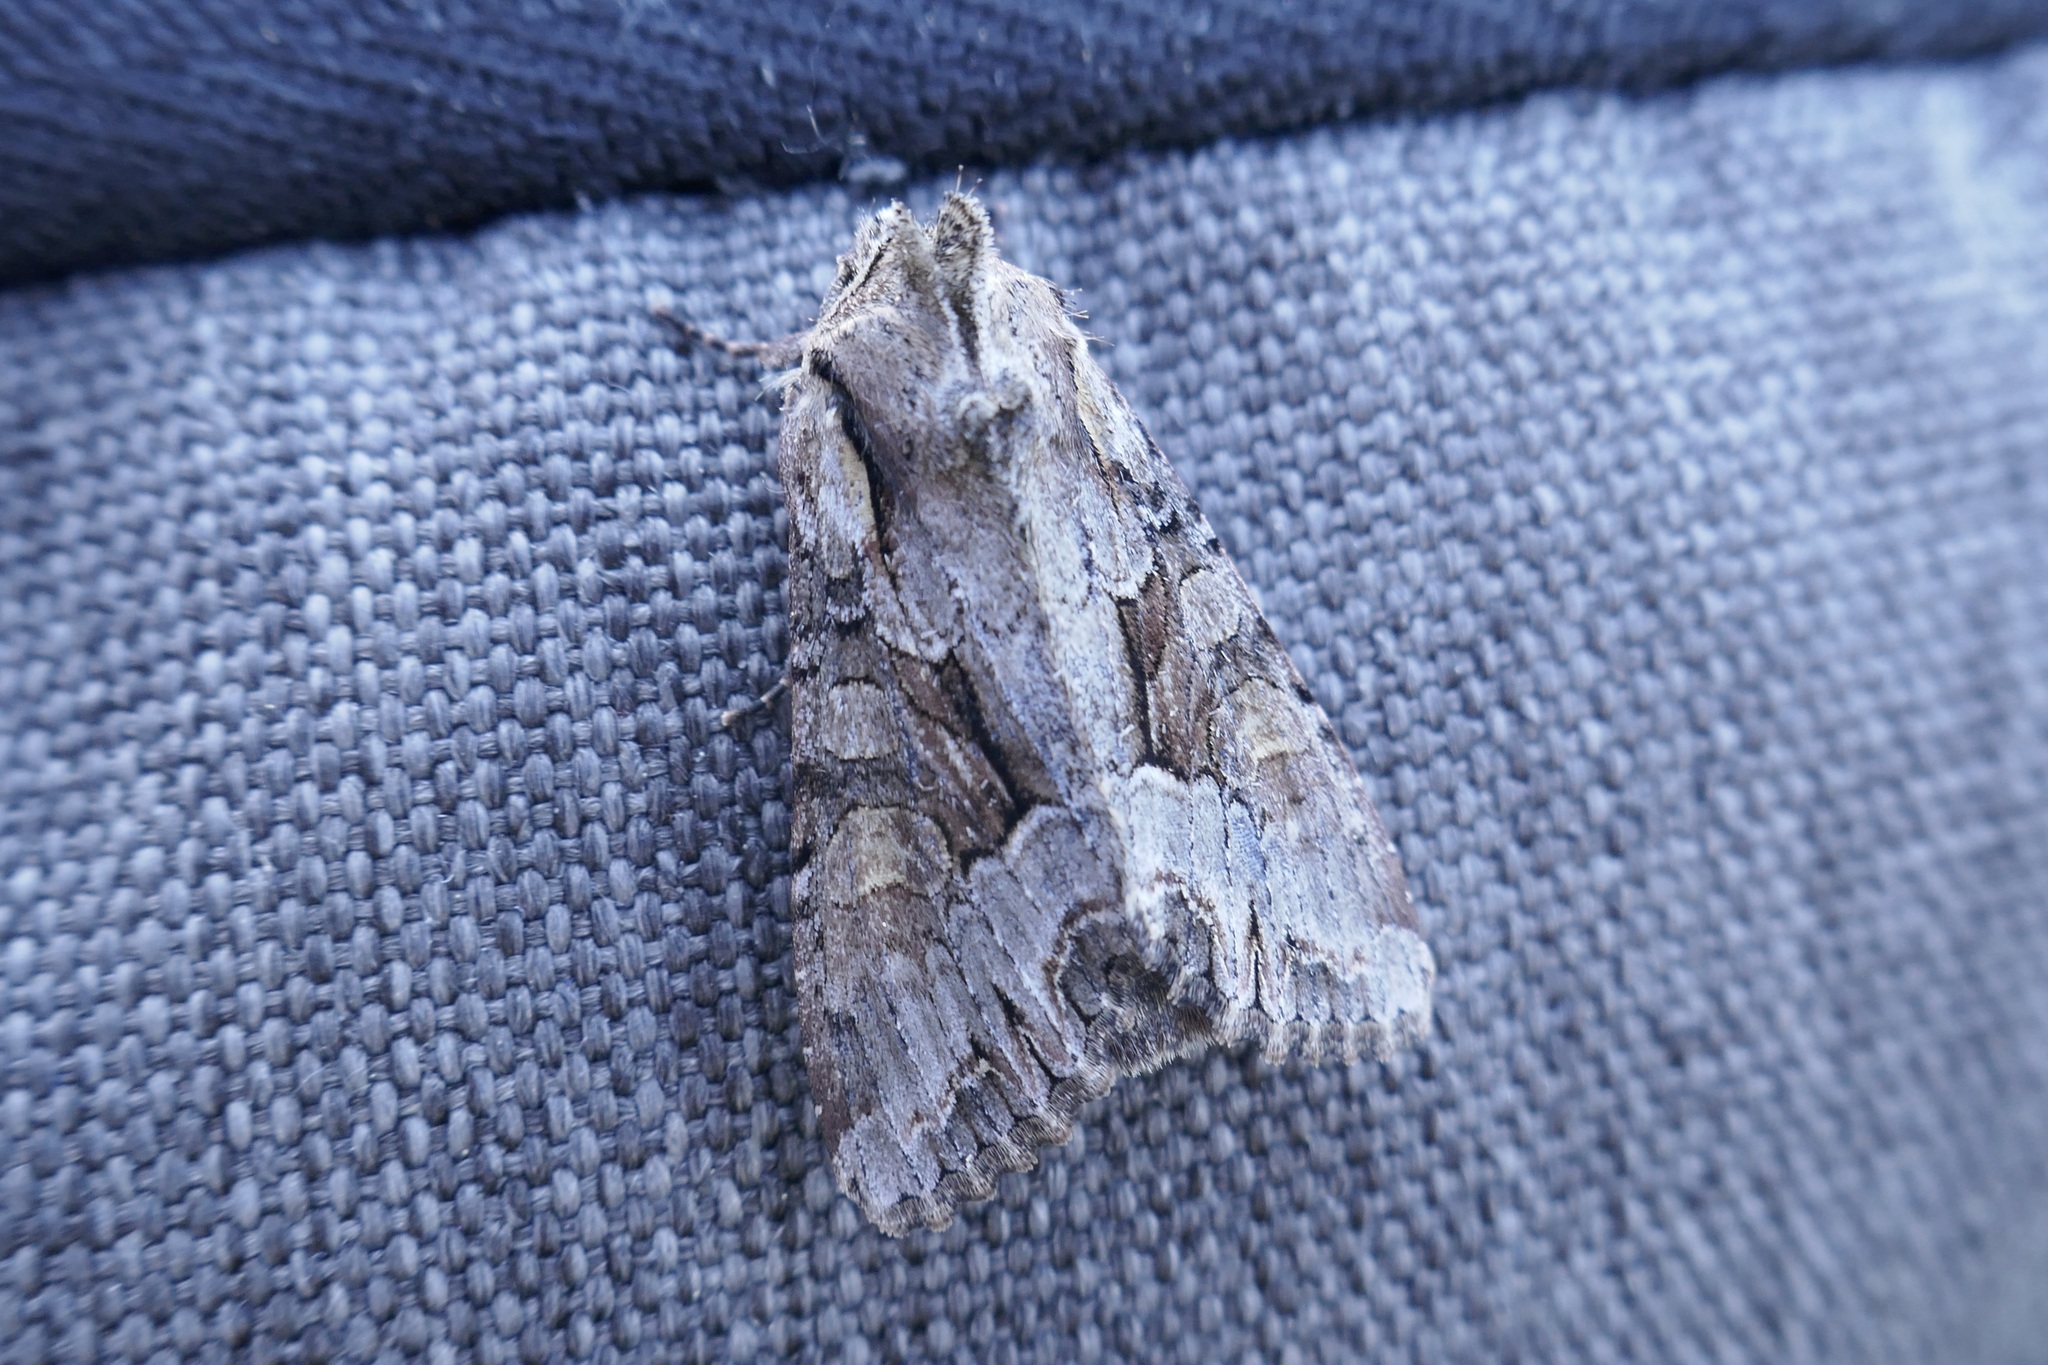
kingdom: Animalia
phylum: Arthropoda
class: Insecta
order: Lepidoptera
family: Noctuidae
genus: Lacanobia
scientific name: Lacanobia w-latinum
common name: Light brocade
